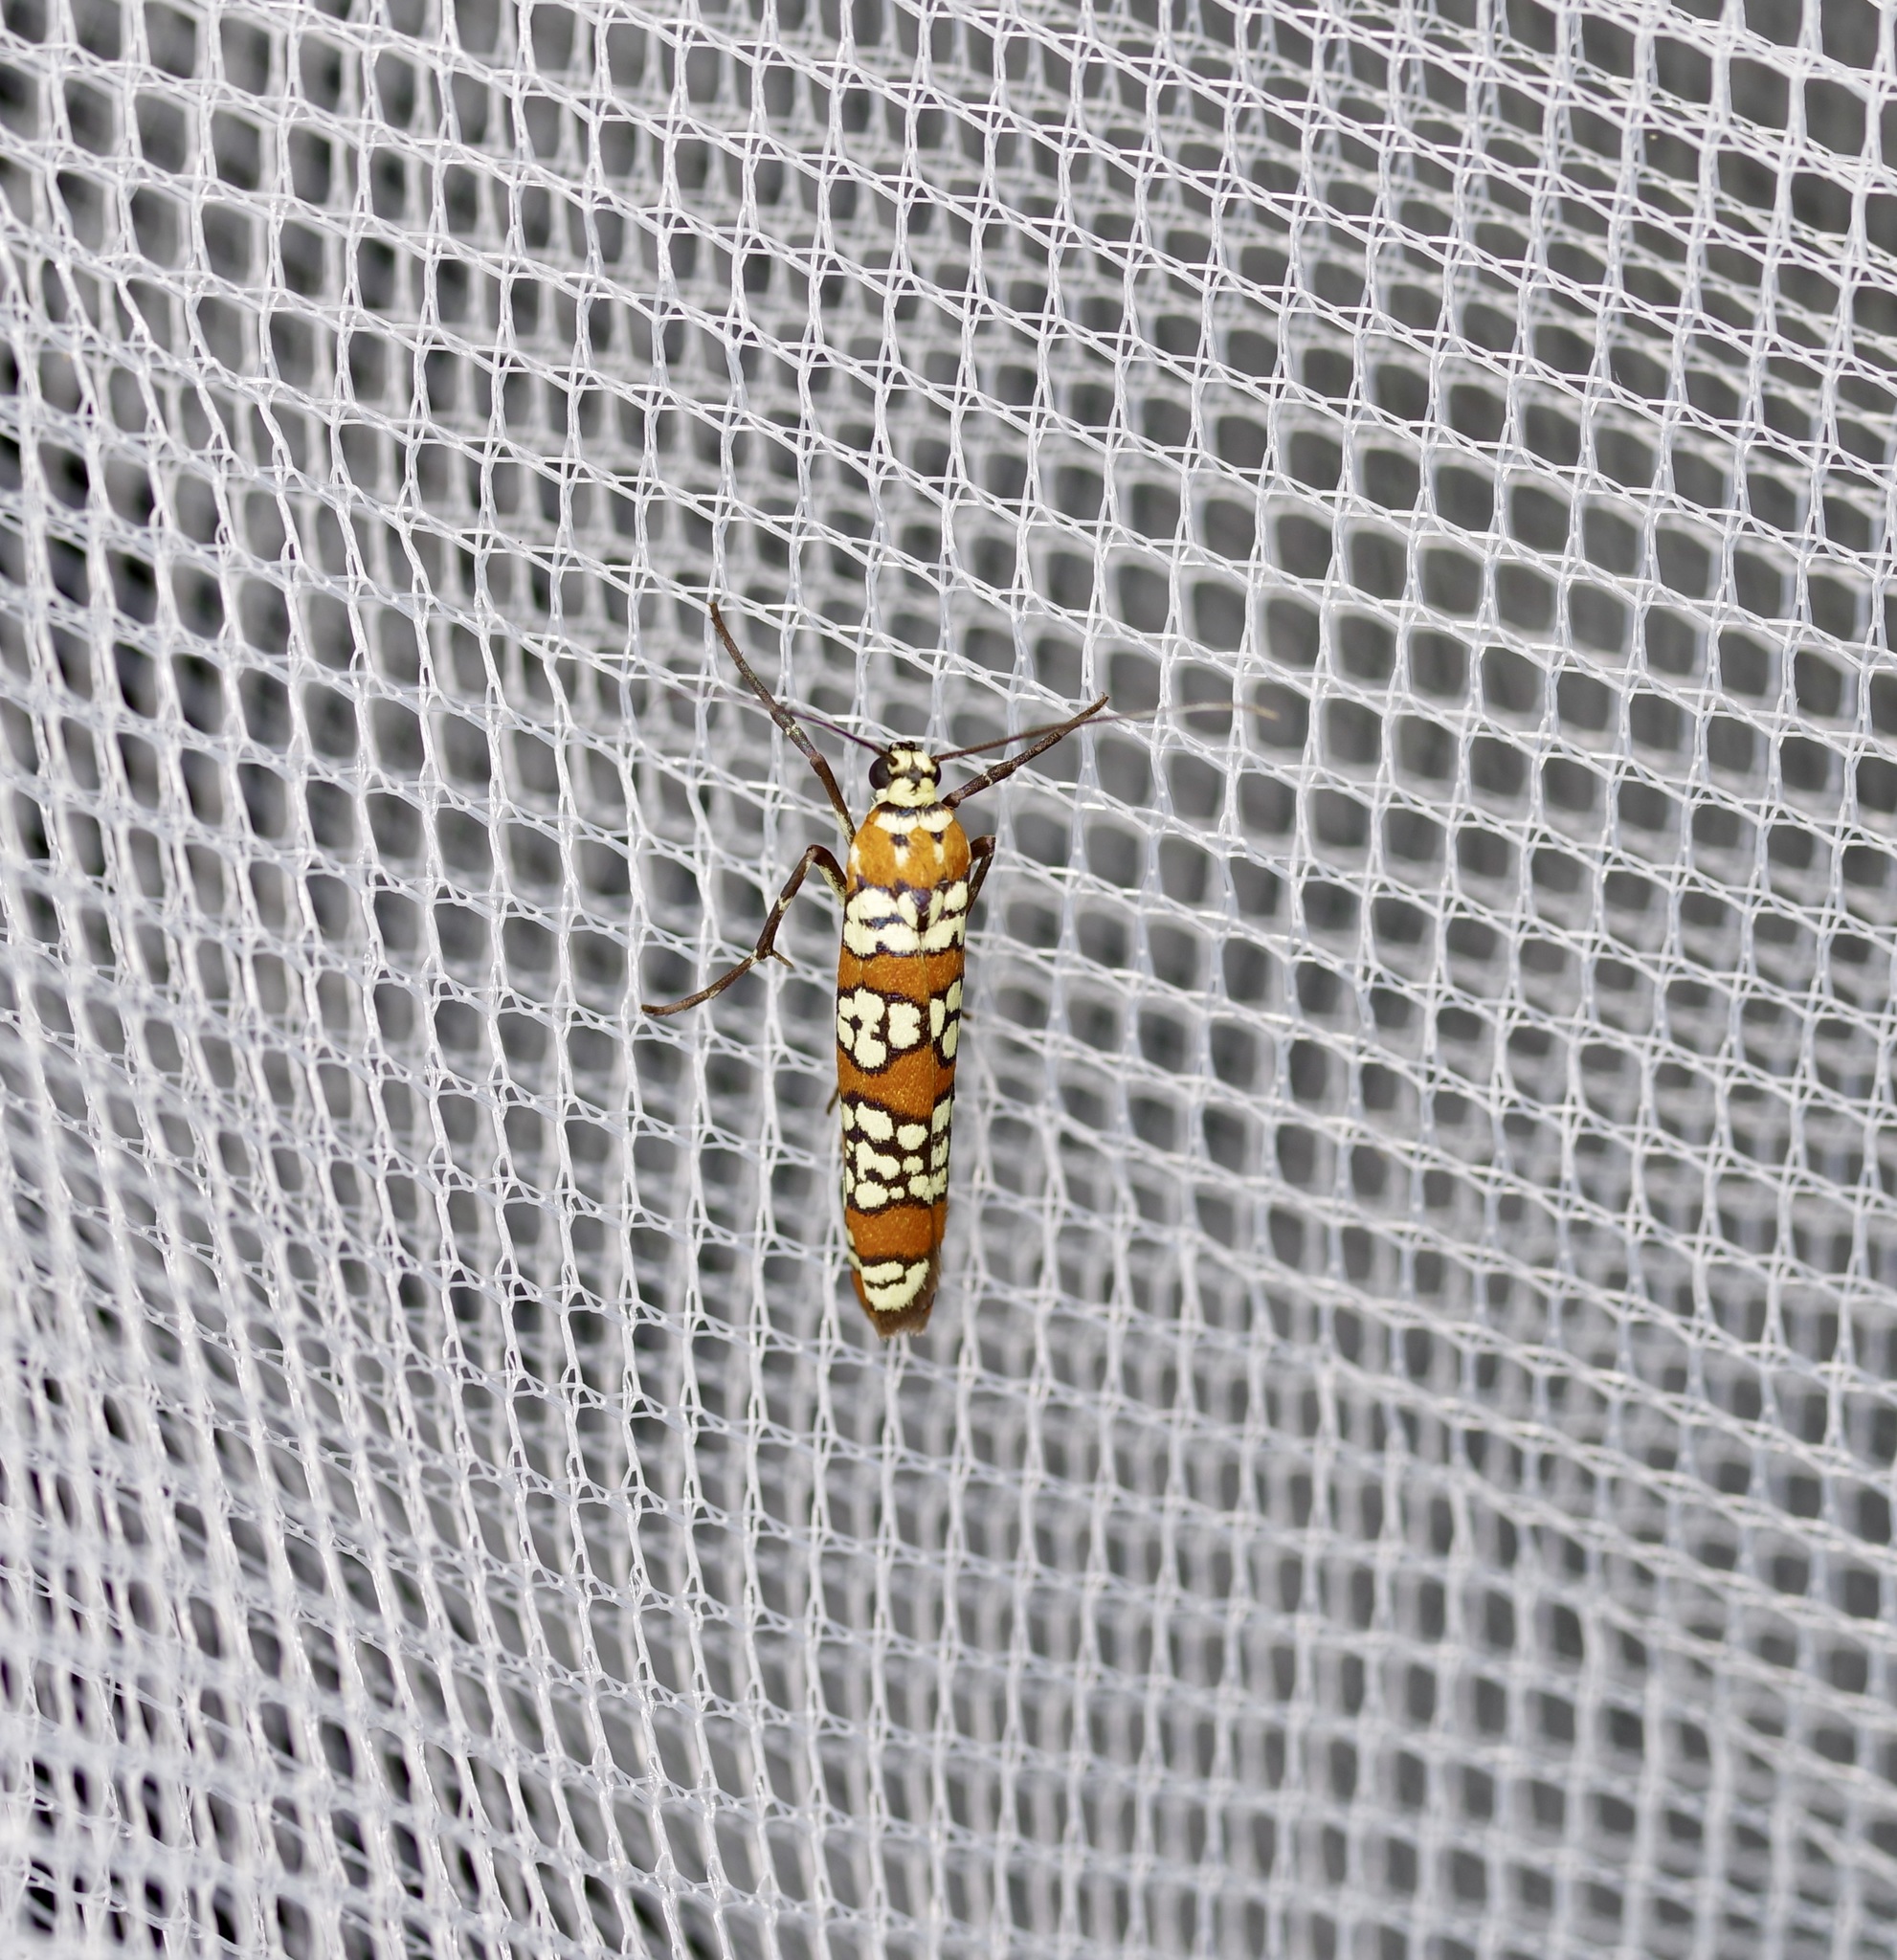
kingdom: Animalia
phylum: Arthropoda
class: Insecta
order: Lepidoptera
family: Attevidae
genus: Atteva
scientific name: Atteva punctella
